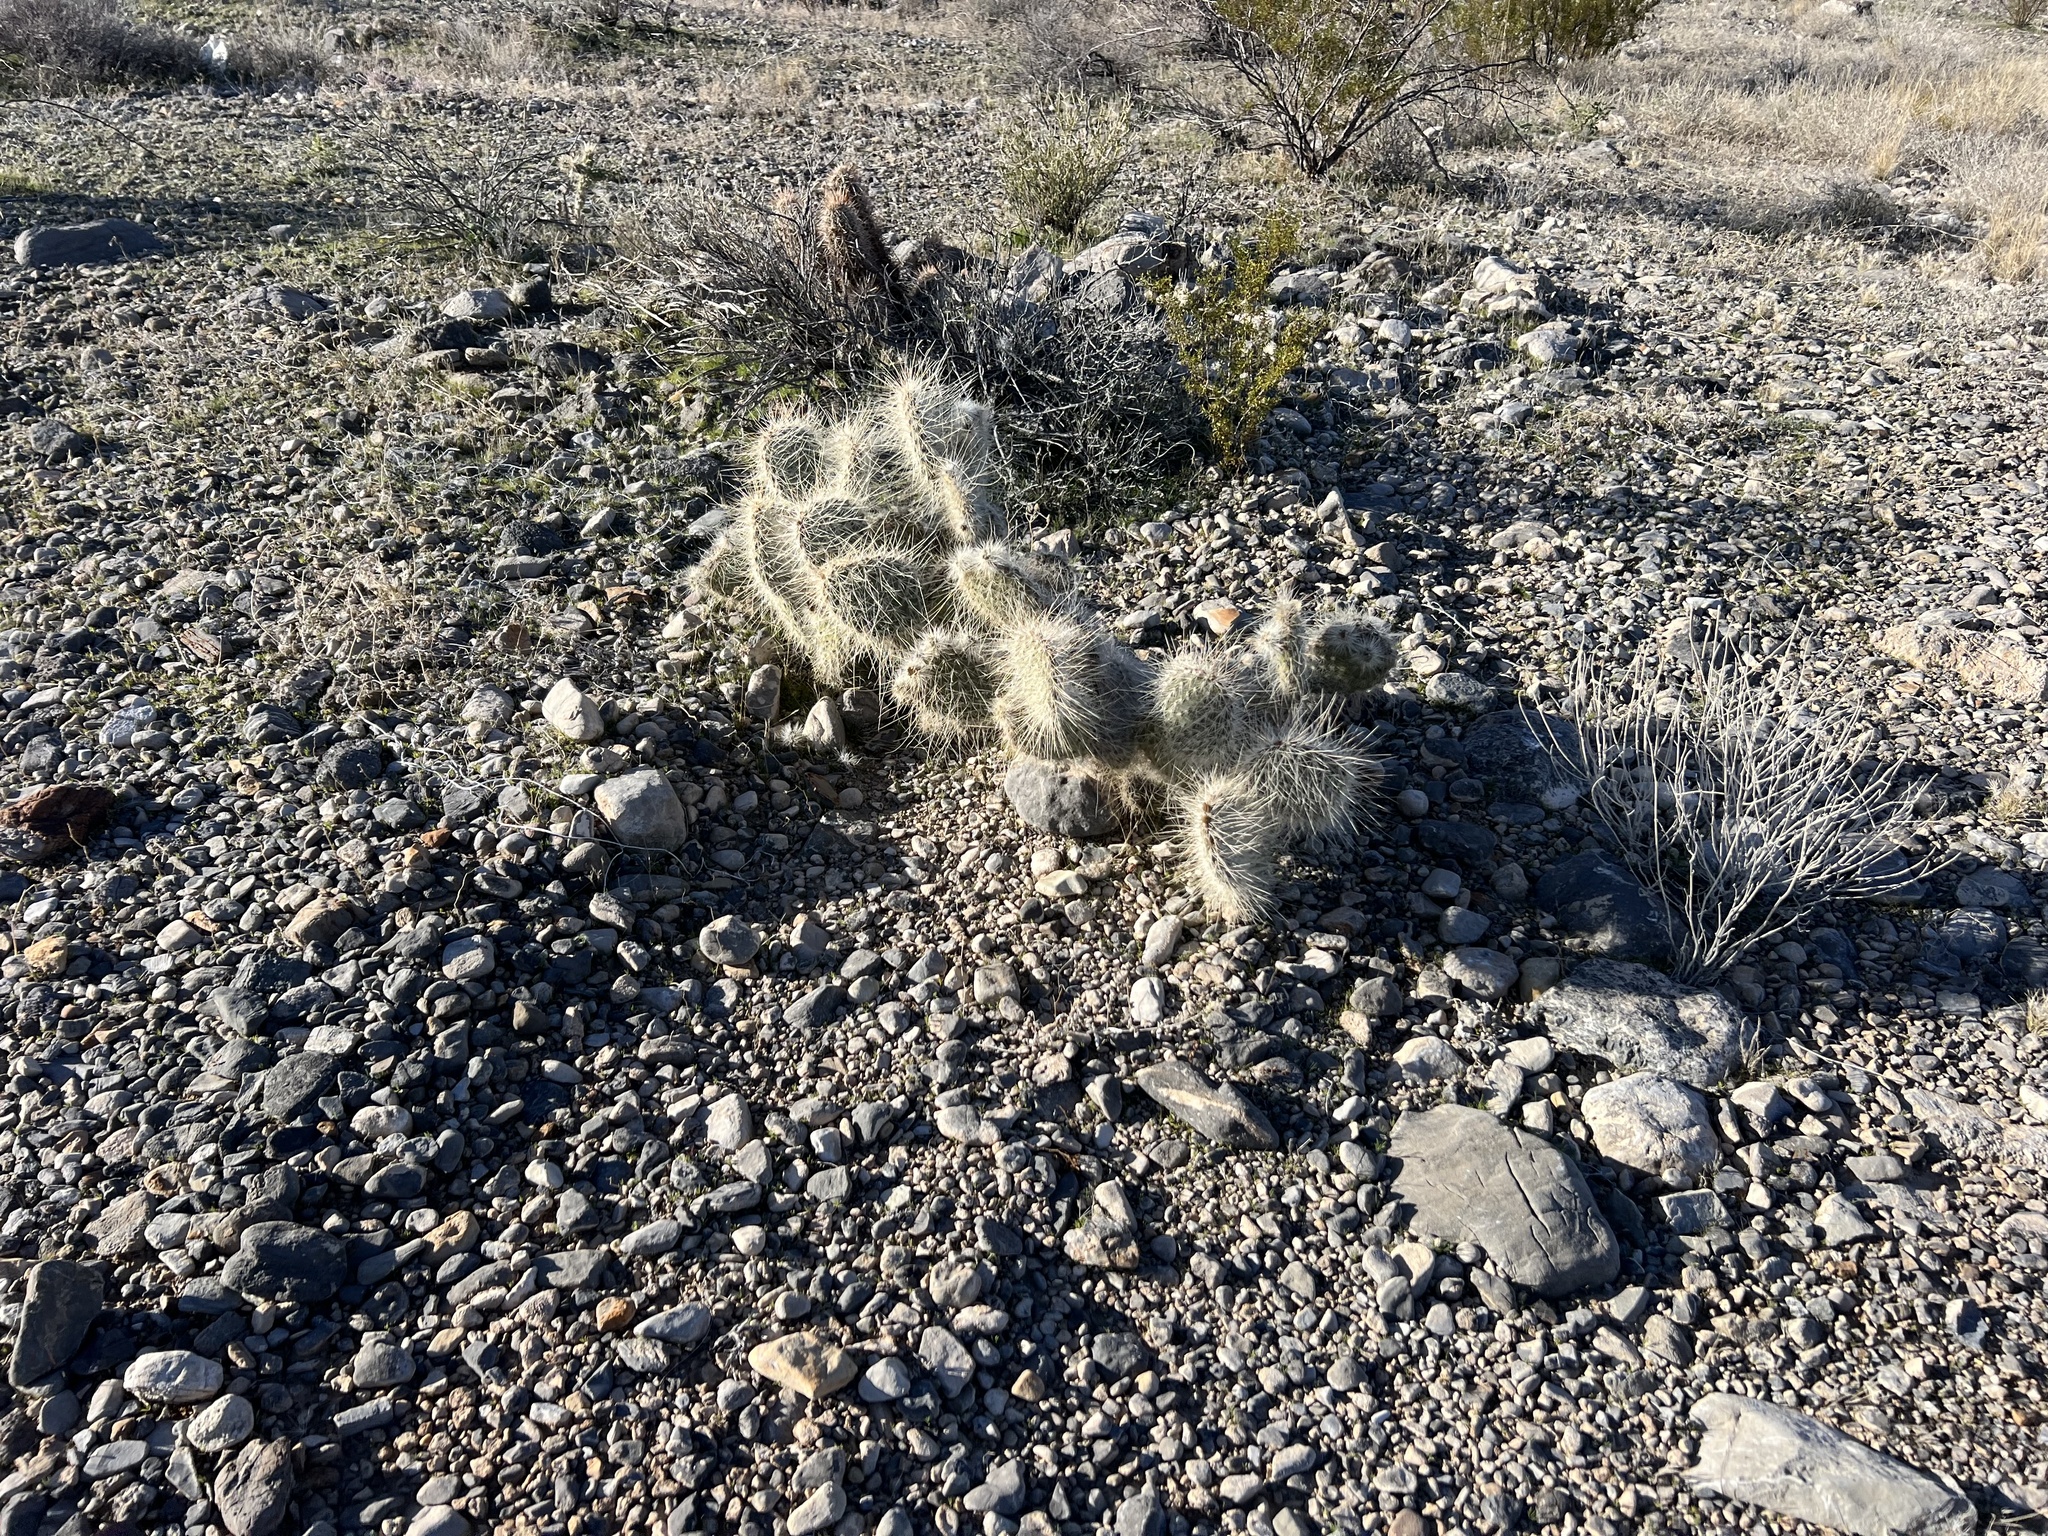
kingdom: Plantae
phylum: Tracheophyta
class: Magnoliopsida
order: Caryophyllales
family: Cactaceae
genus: Opuntia
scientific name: Opuntia polyacantha
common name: Plains prickly-pear
